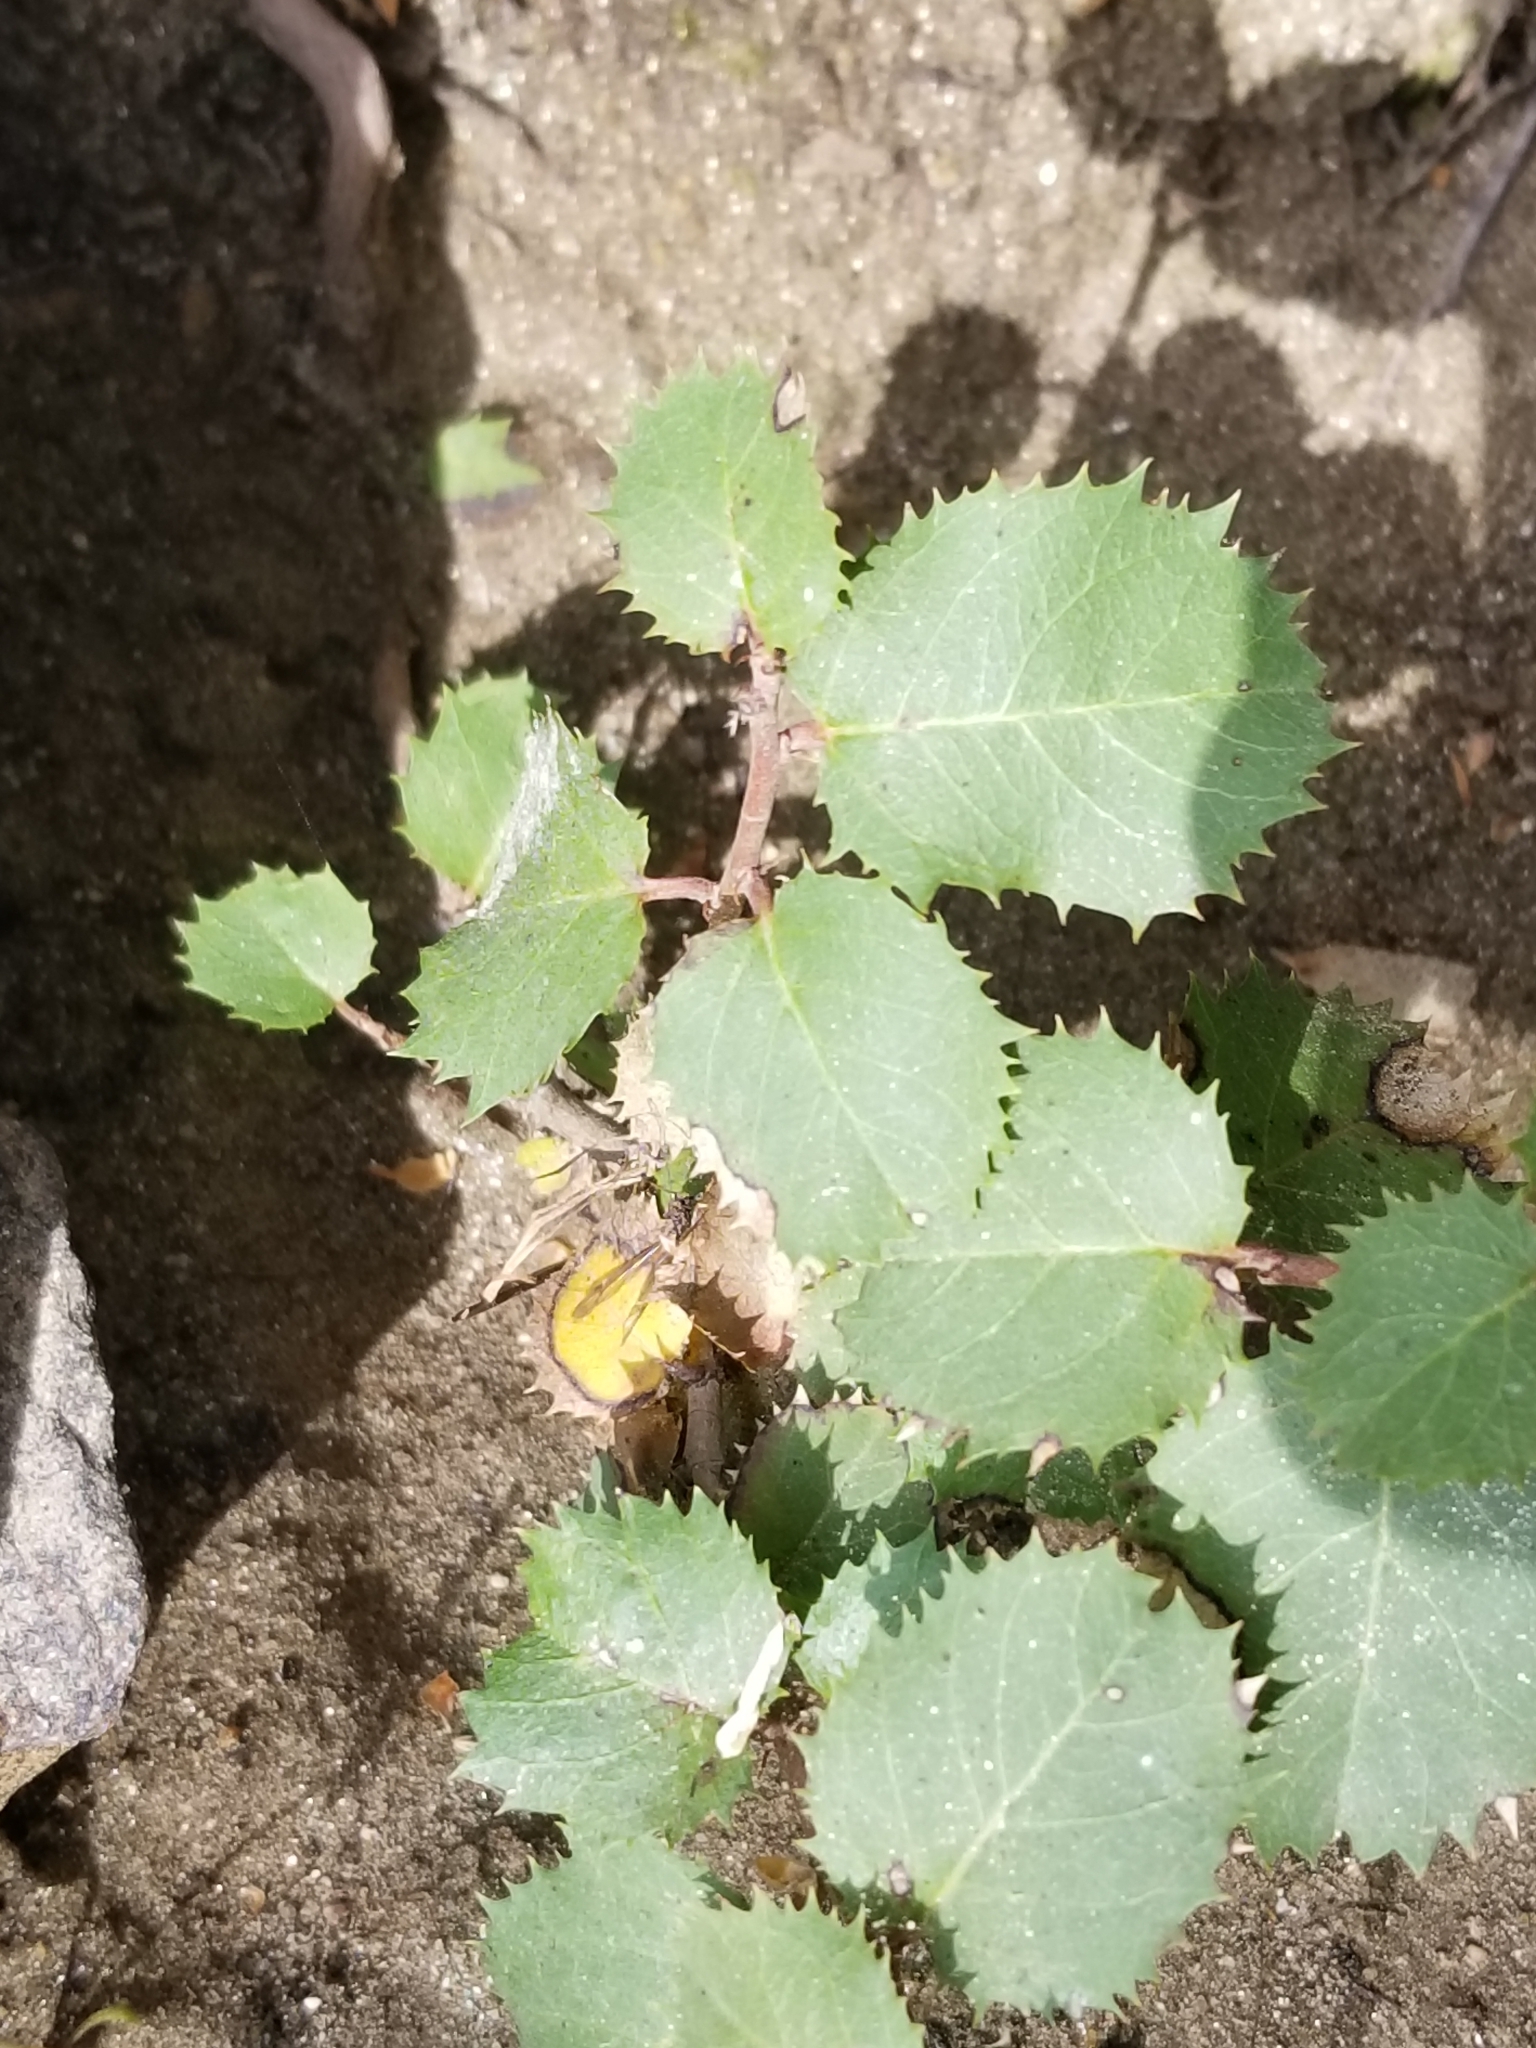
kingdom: Plantae
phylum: Tracheophyta
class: Magnoliopsida
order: Rosales
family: Rhamnaceae
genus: Endotropis
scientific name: Endotropis crocea
